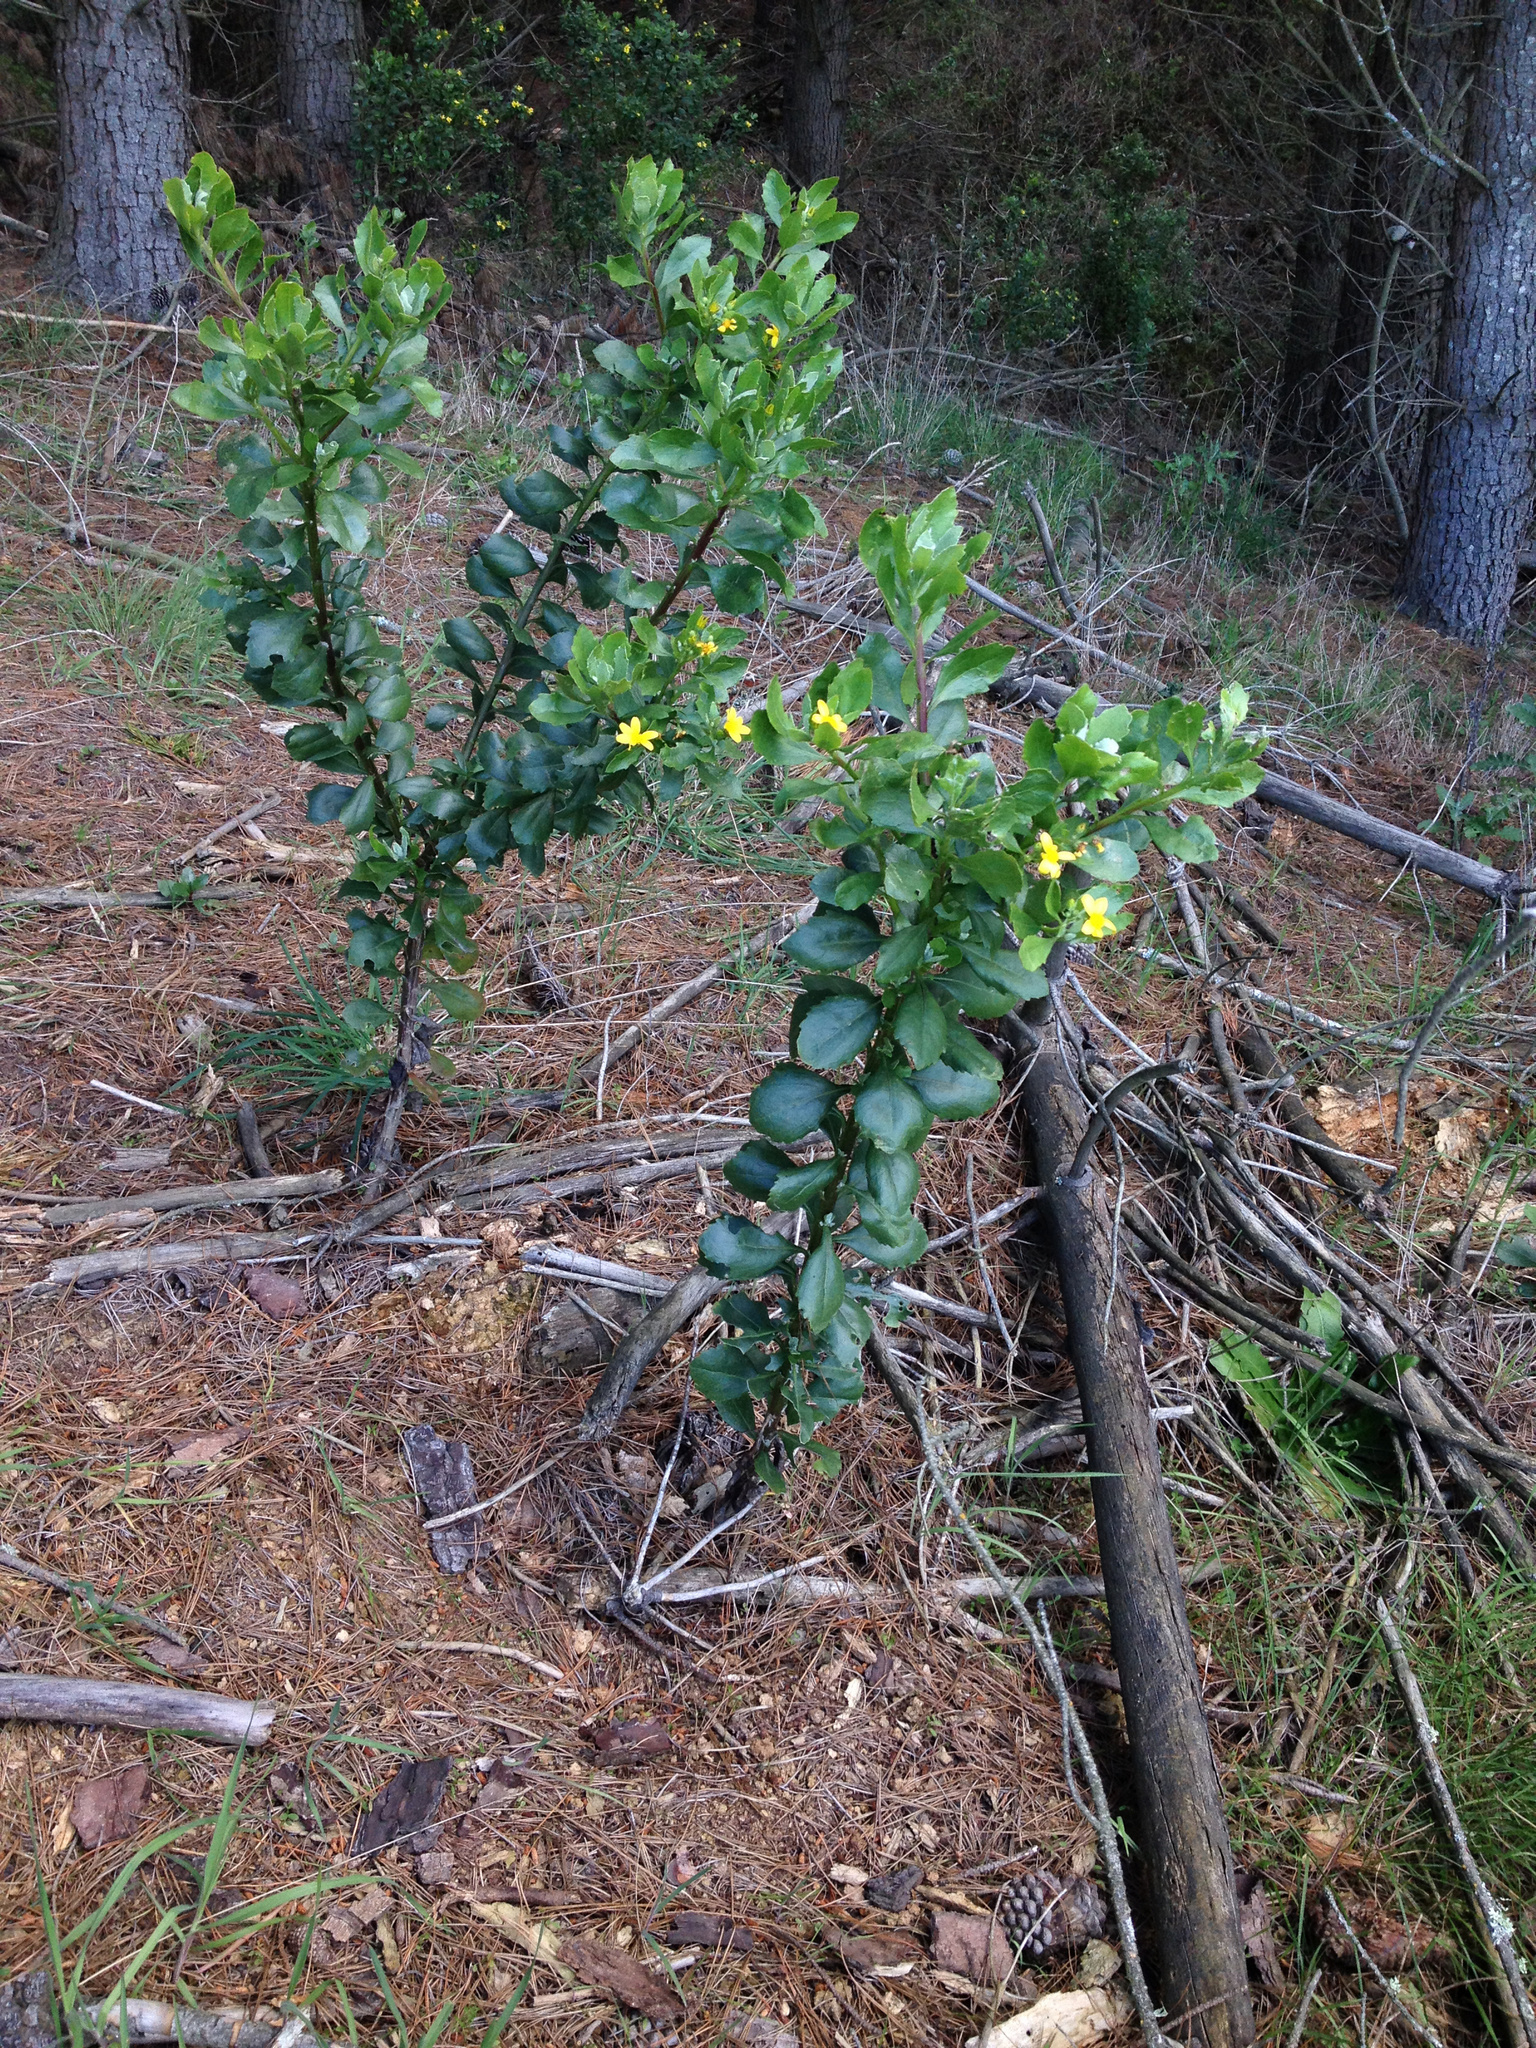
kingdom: Plantae
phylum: Tracheophyta
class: Magnoliopsida
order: Asterales
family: Asteraceae
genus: Osteospermum
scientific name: Osteospermum moniliferum
